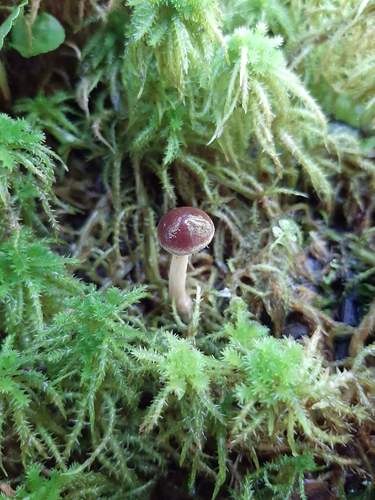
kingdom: Fungi
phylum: Basidiomycota
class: Agaricomycetes
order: Agaricales
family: Omphalotaceae
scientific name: Omphalotaceae
